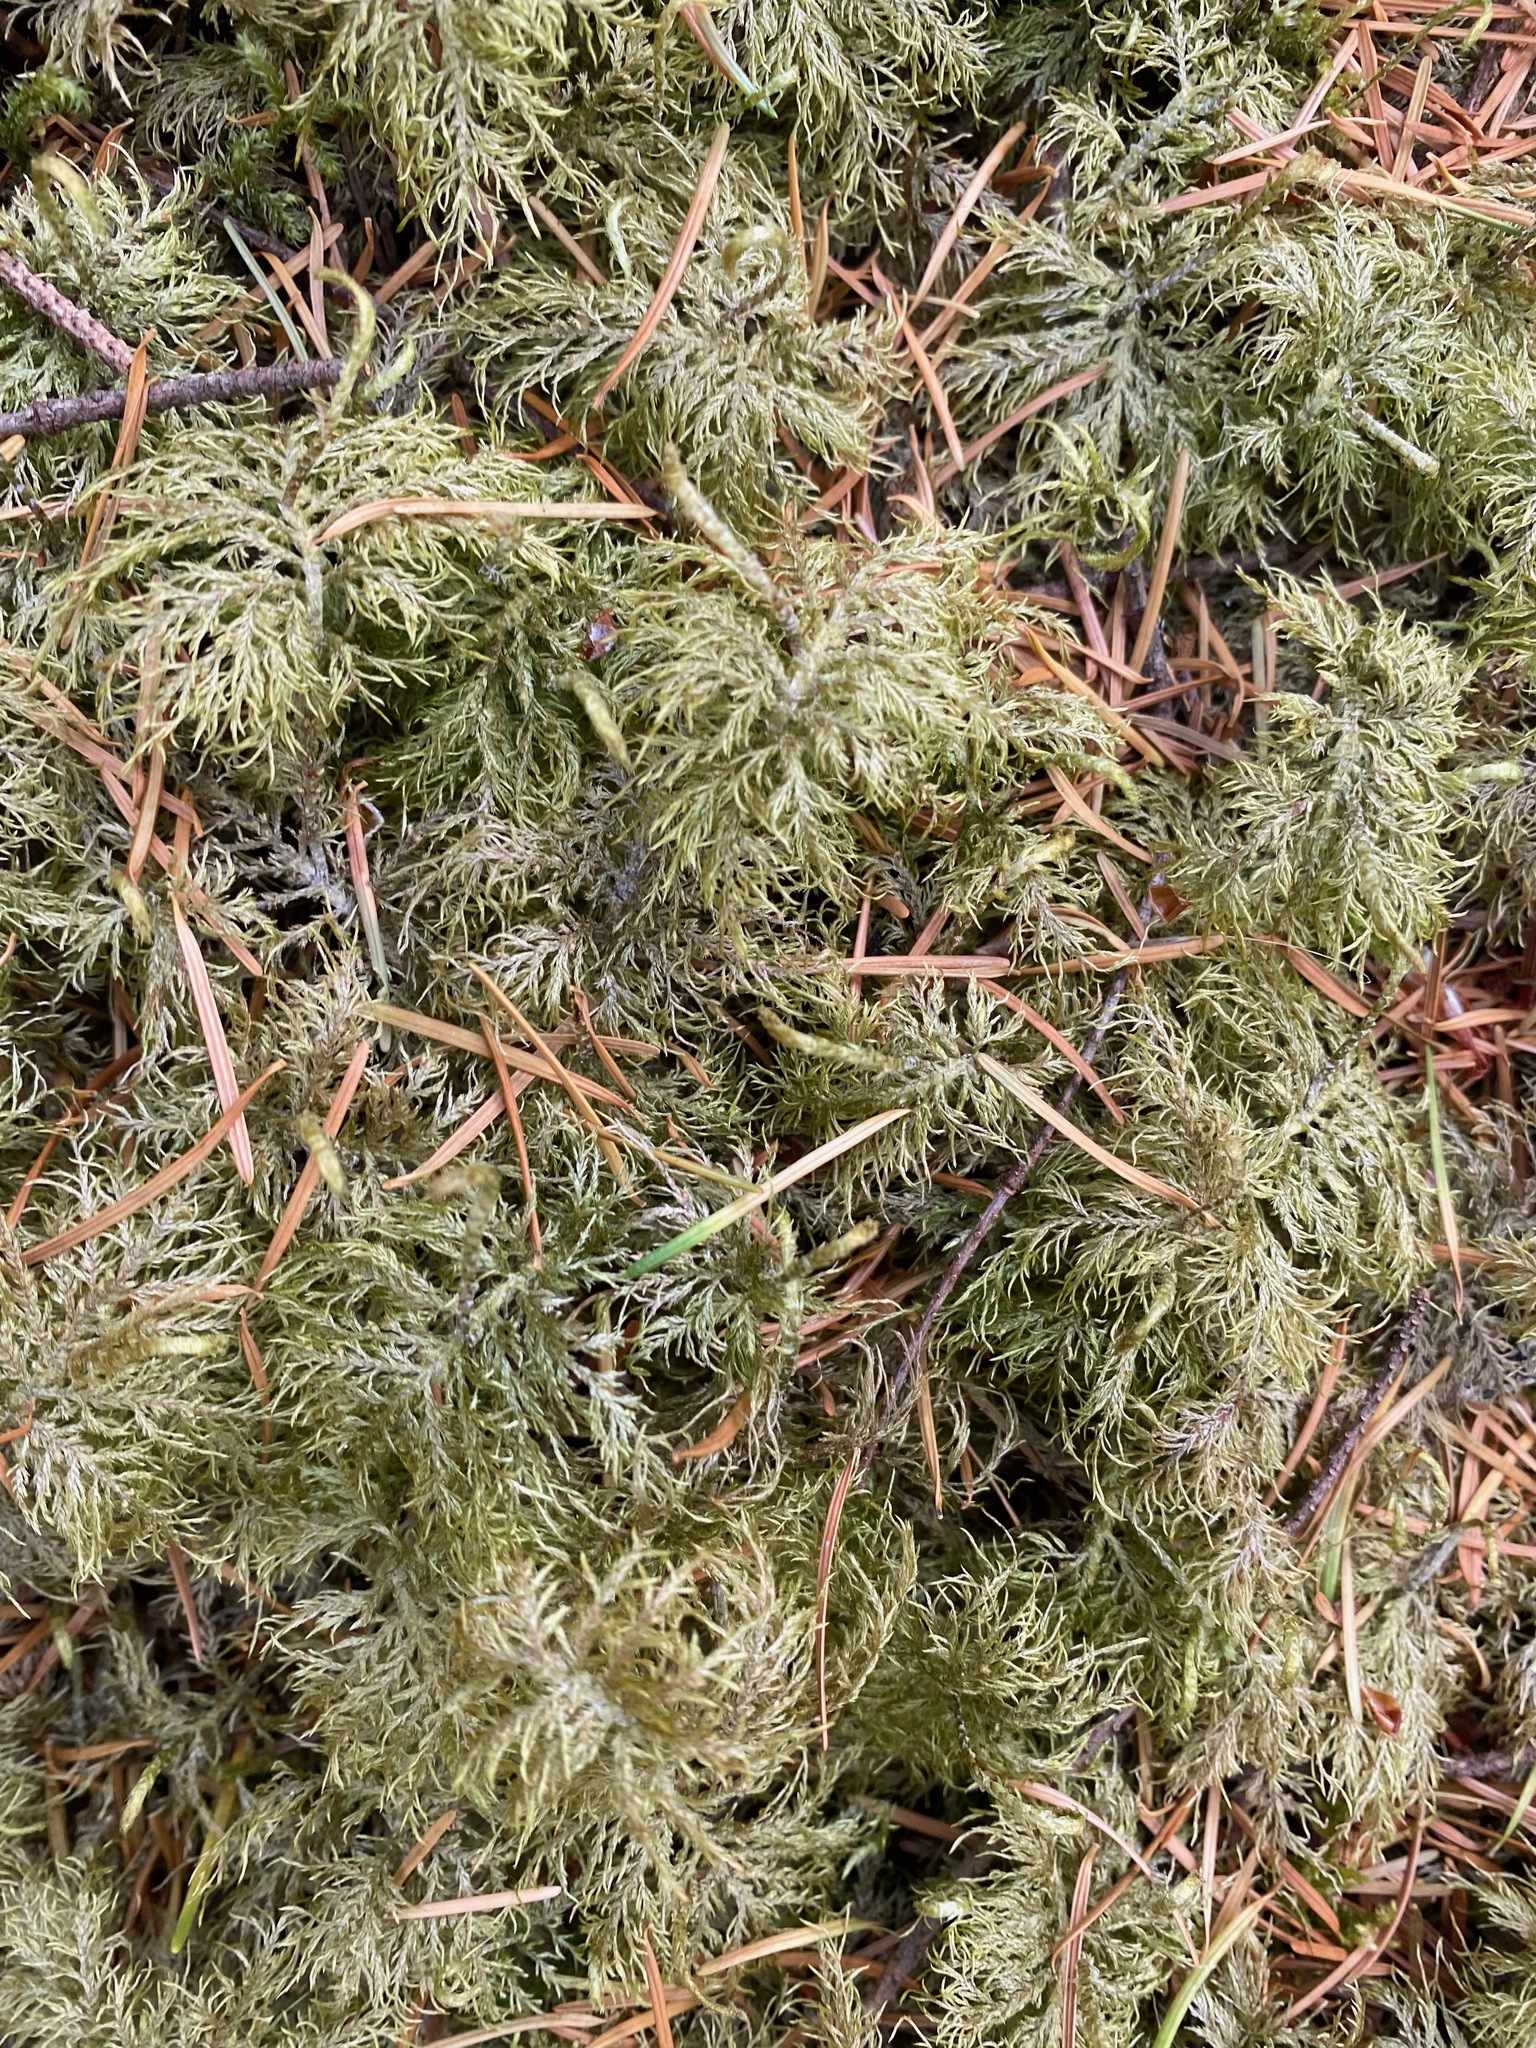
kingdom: Plantae
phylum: Bryophyta
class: Bryopsida
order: Hypnales
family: Hylocomiaceae
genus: Hylocomium
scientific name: Hylocomium splendens
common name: Stairstep moss
